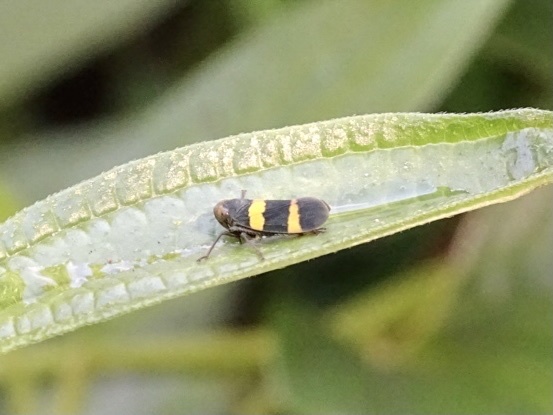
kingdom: Animalia
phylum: Arthropoda
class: Insecta
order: Hemiptera
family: Cicadellidae
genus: Olidiana
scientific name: Olidiana brevis
